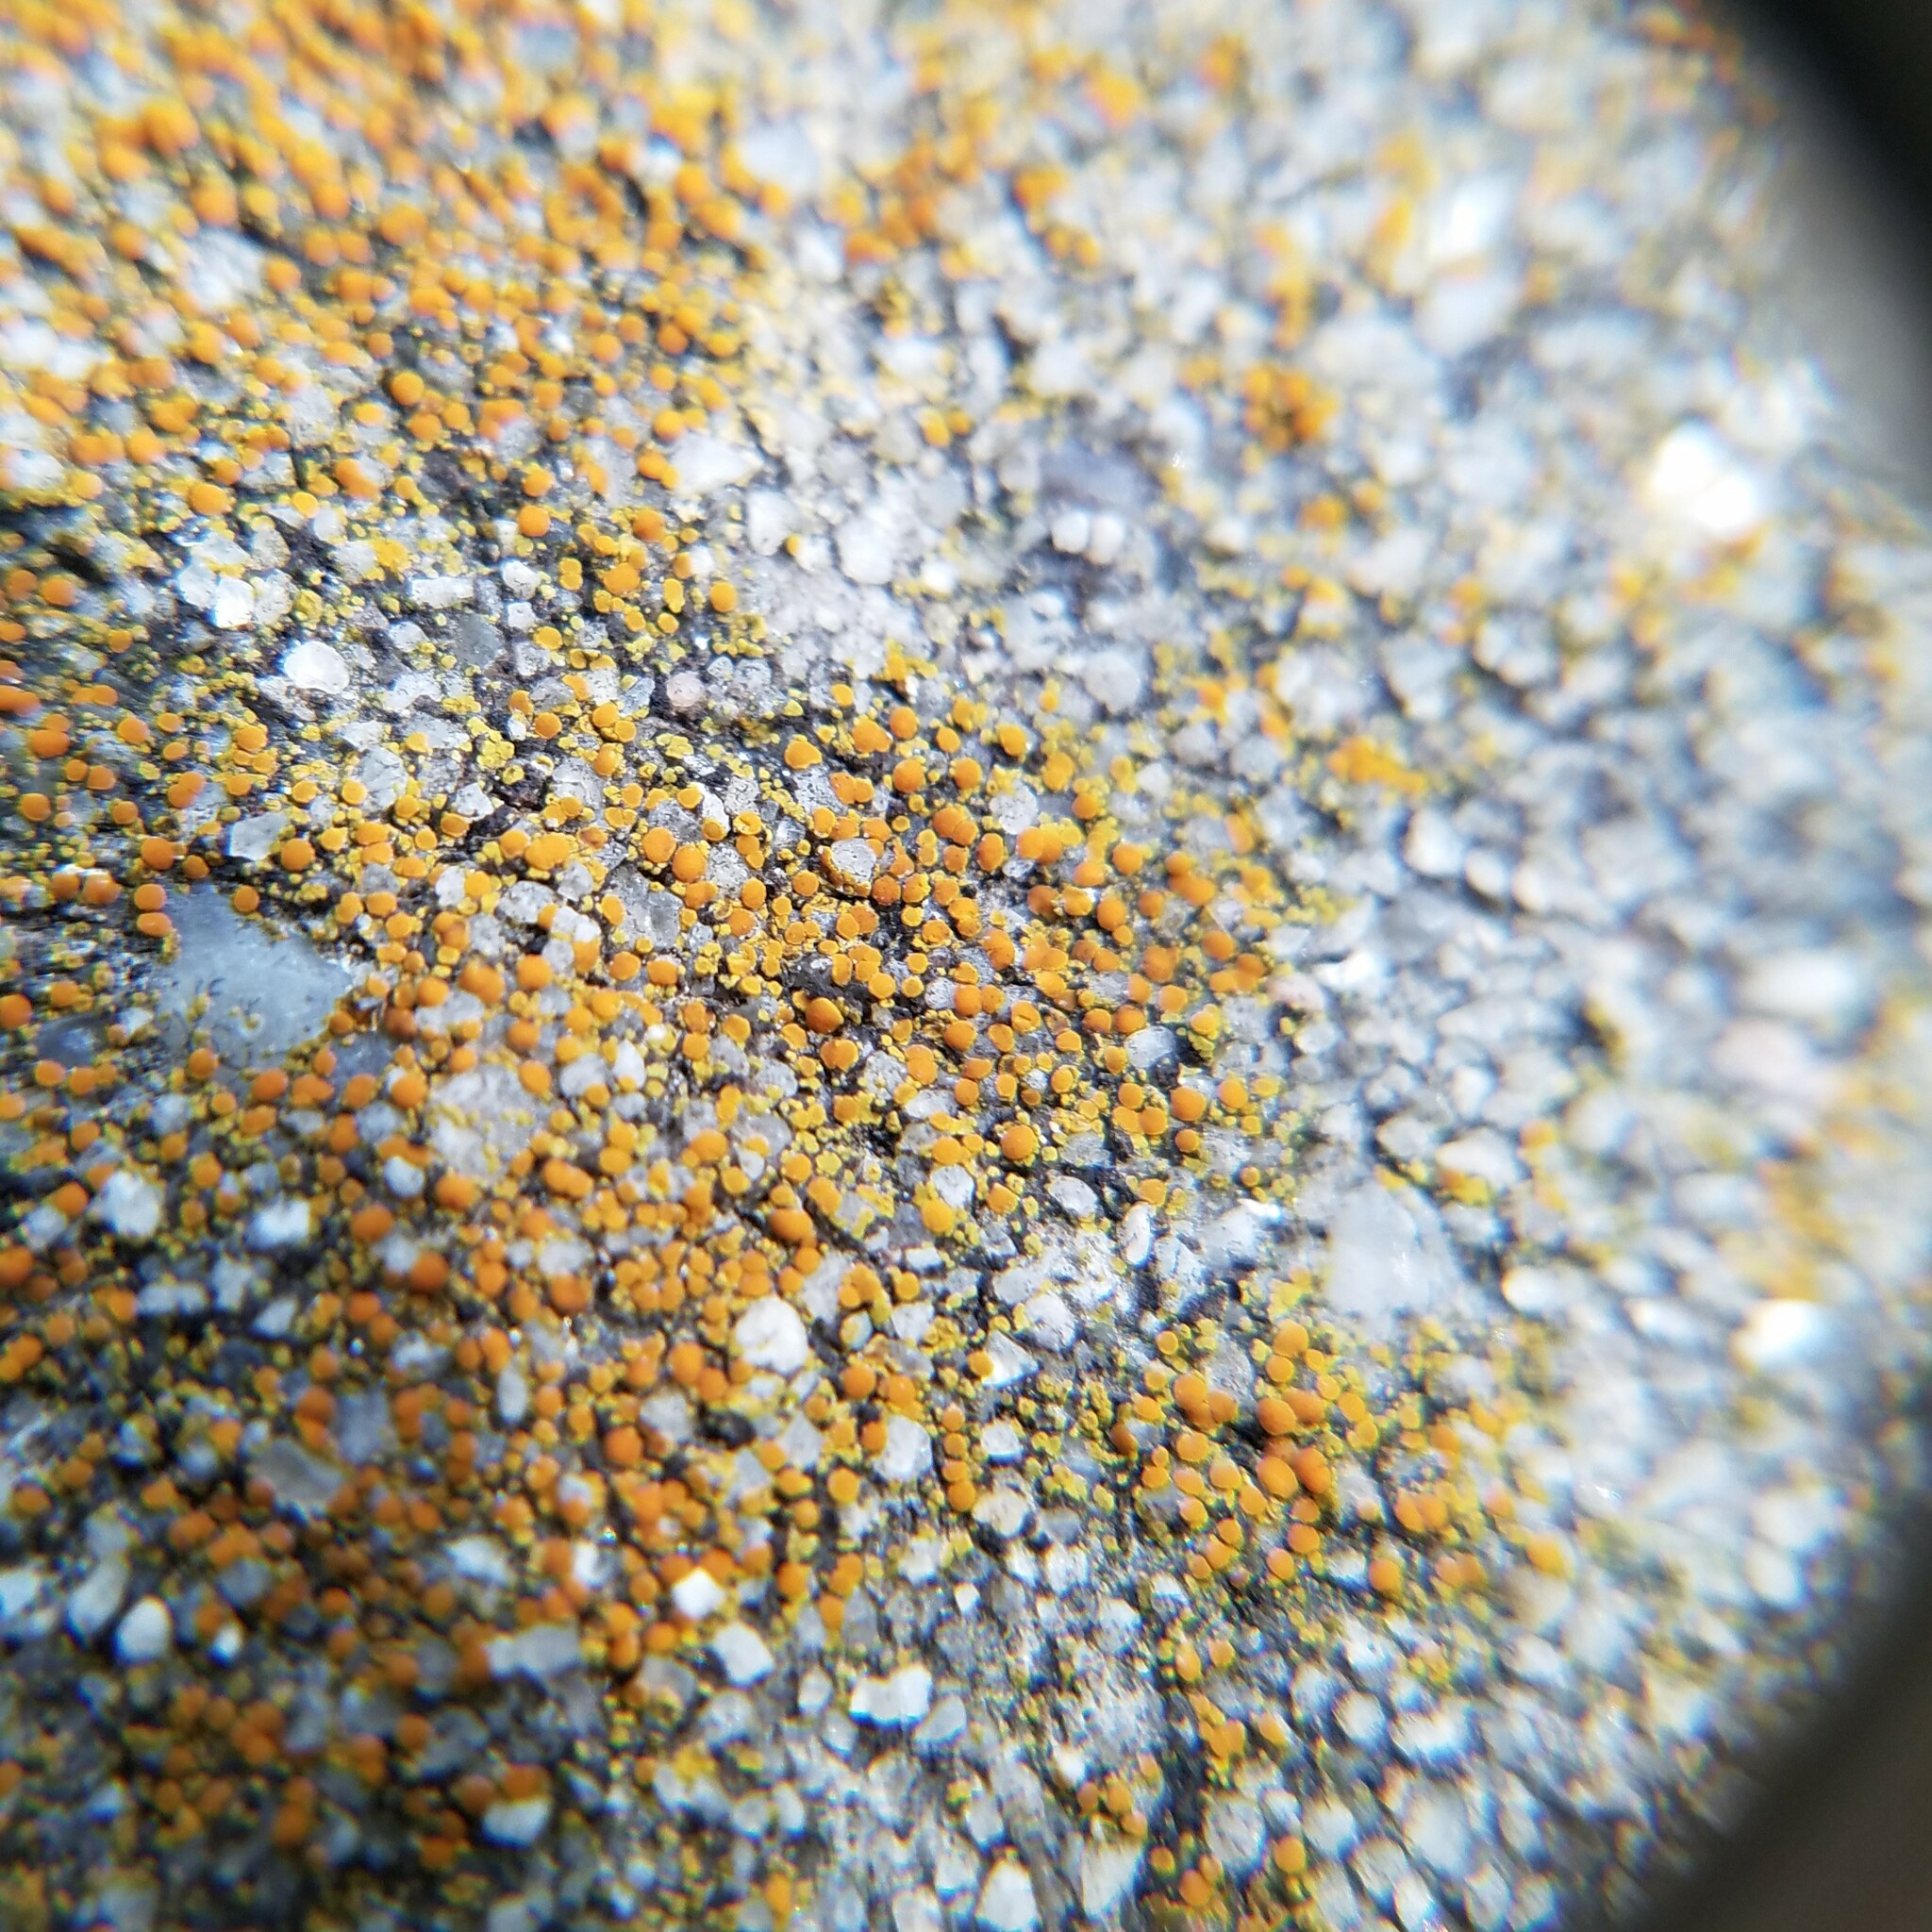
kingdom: Fungi
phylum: Ascomycota
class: Lecanoromycetes
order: Teloschistales
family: Teloschistaceae
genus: Gyalolechia
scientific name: Gyalolechia flavovirescens
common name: Sulphur firedot
